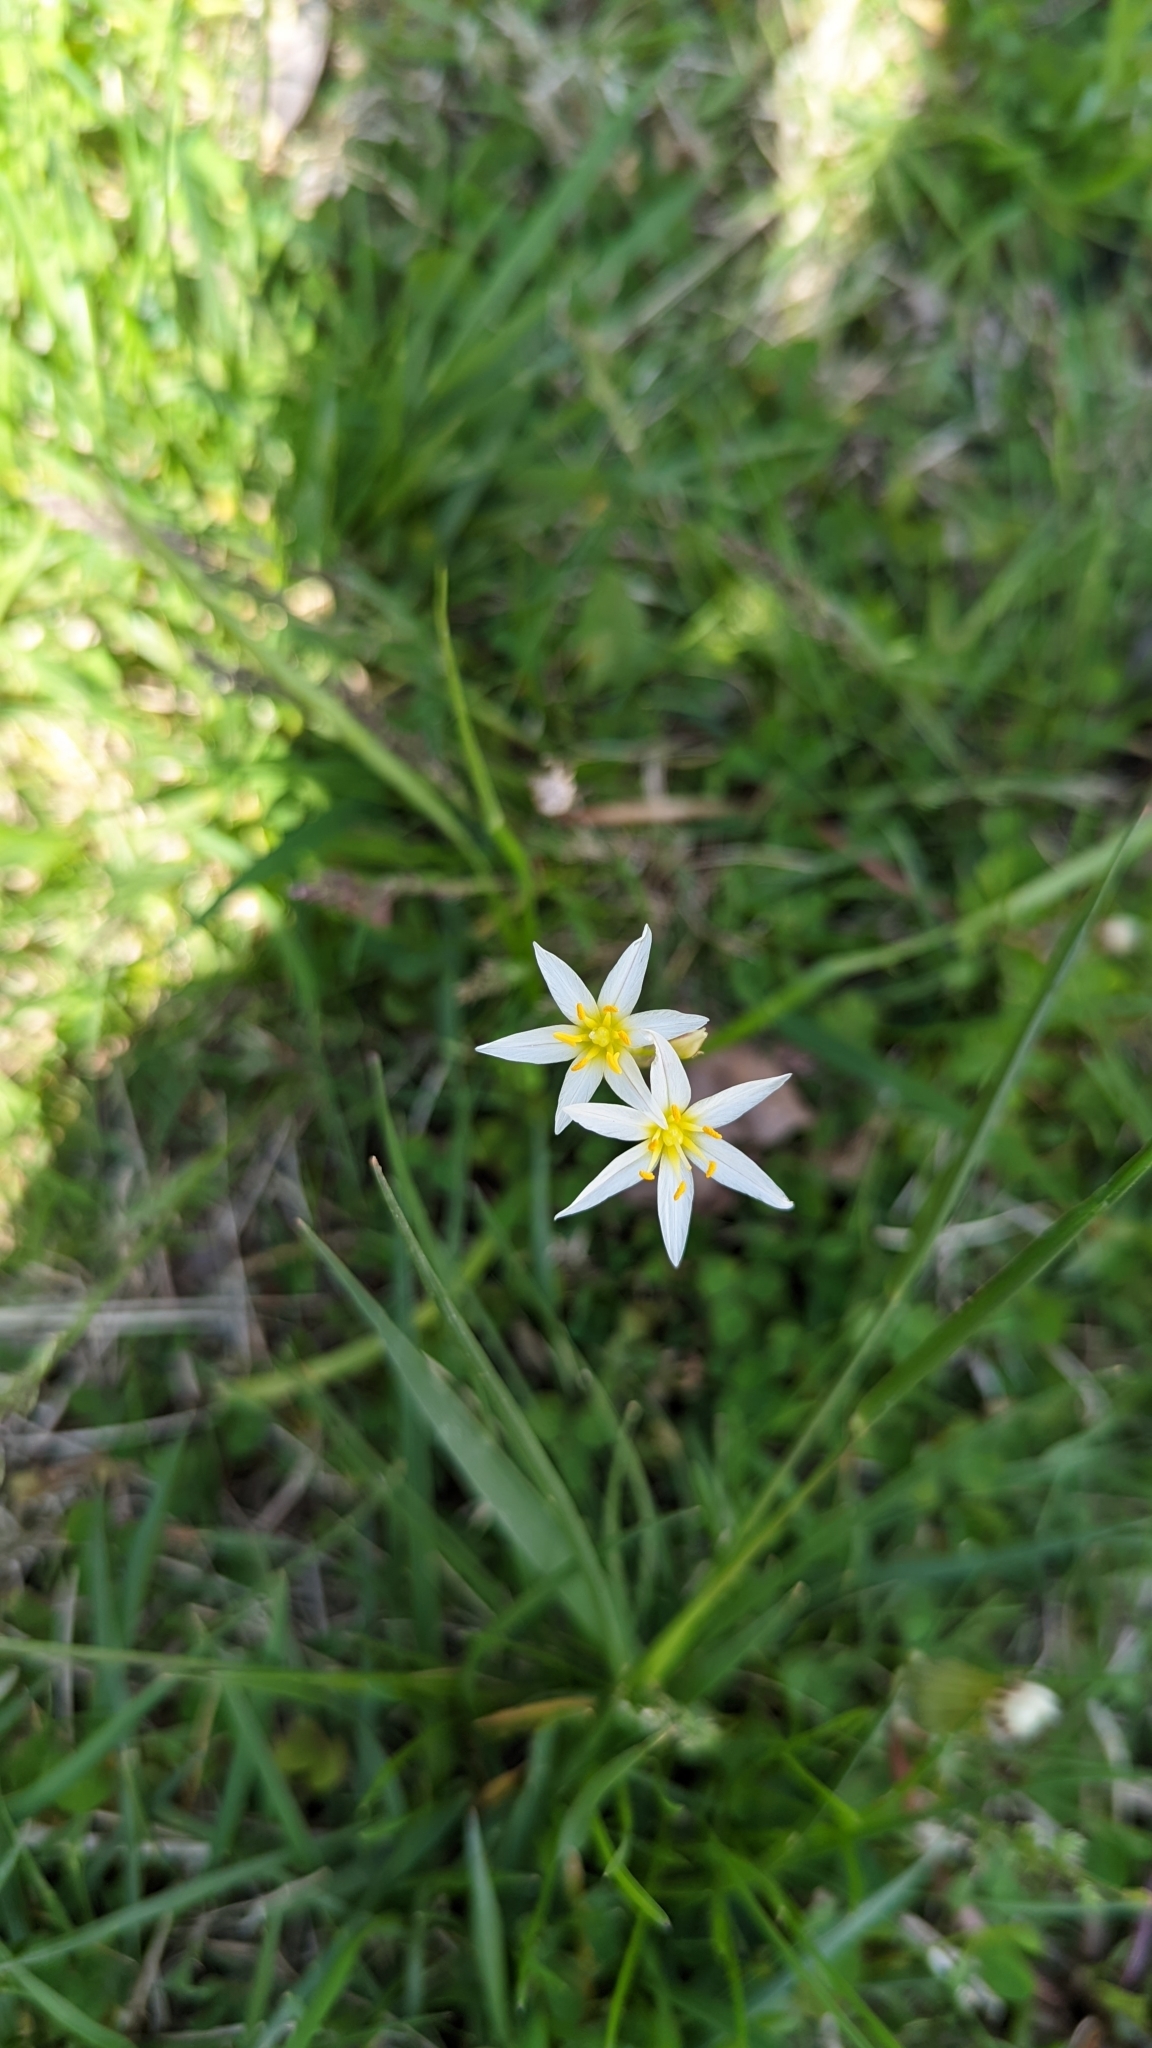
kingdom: Plantae
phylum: Tracheophyta
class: Liliopsida
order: Asparagales
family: Amaryllidaceae
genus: Nothoscordum
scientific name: Nothoscordum bivalve
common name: Crow-poison
